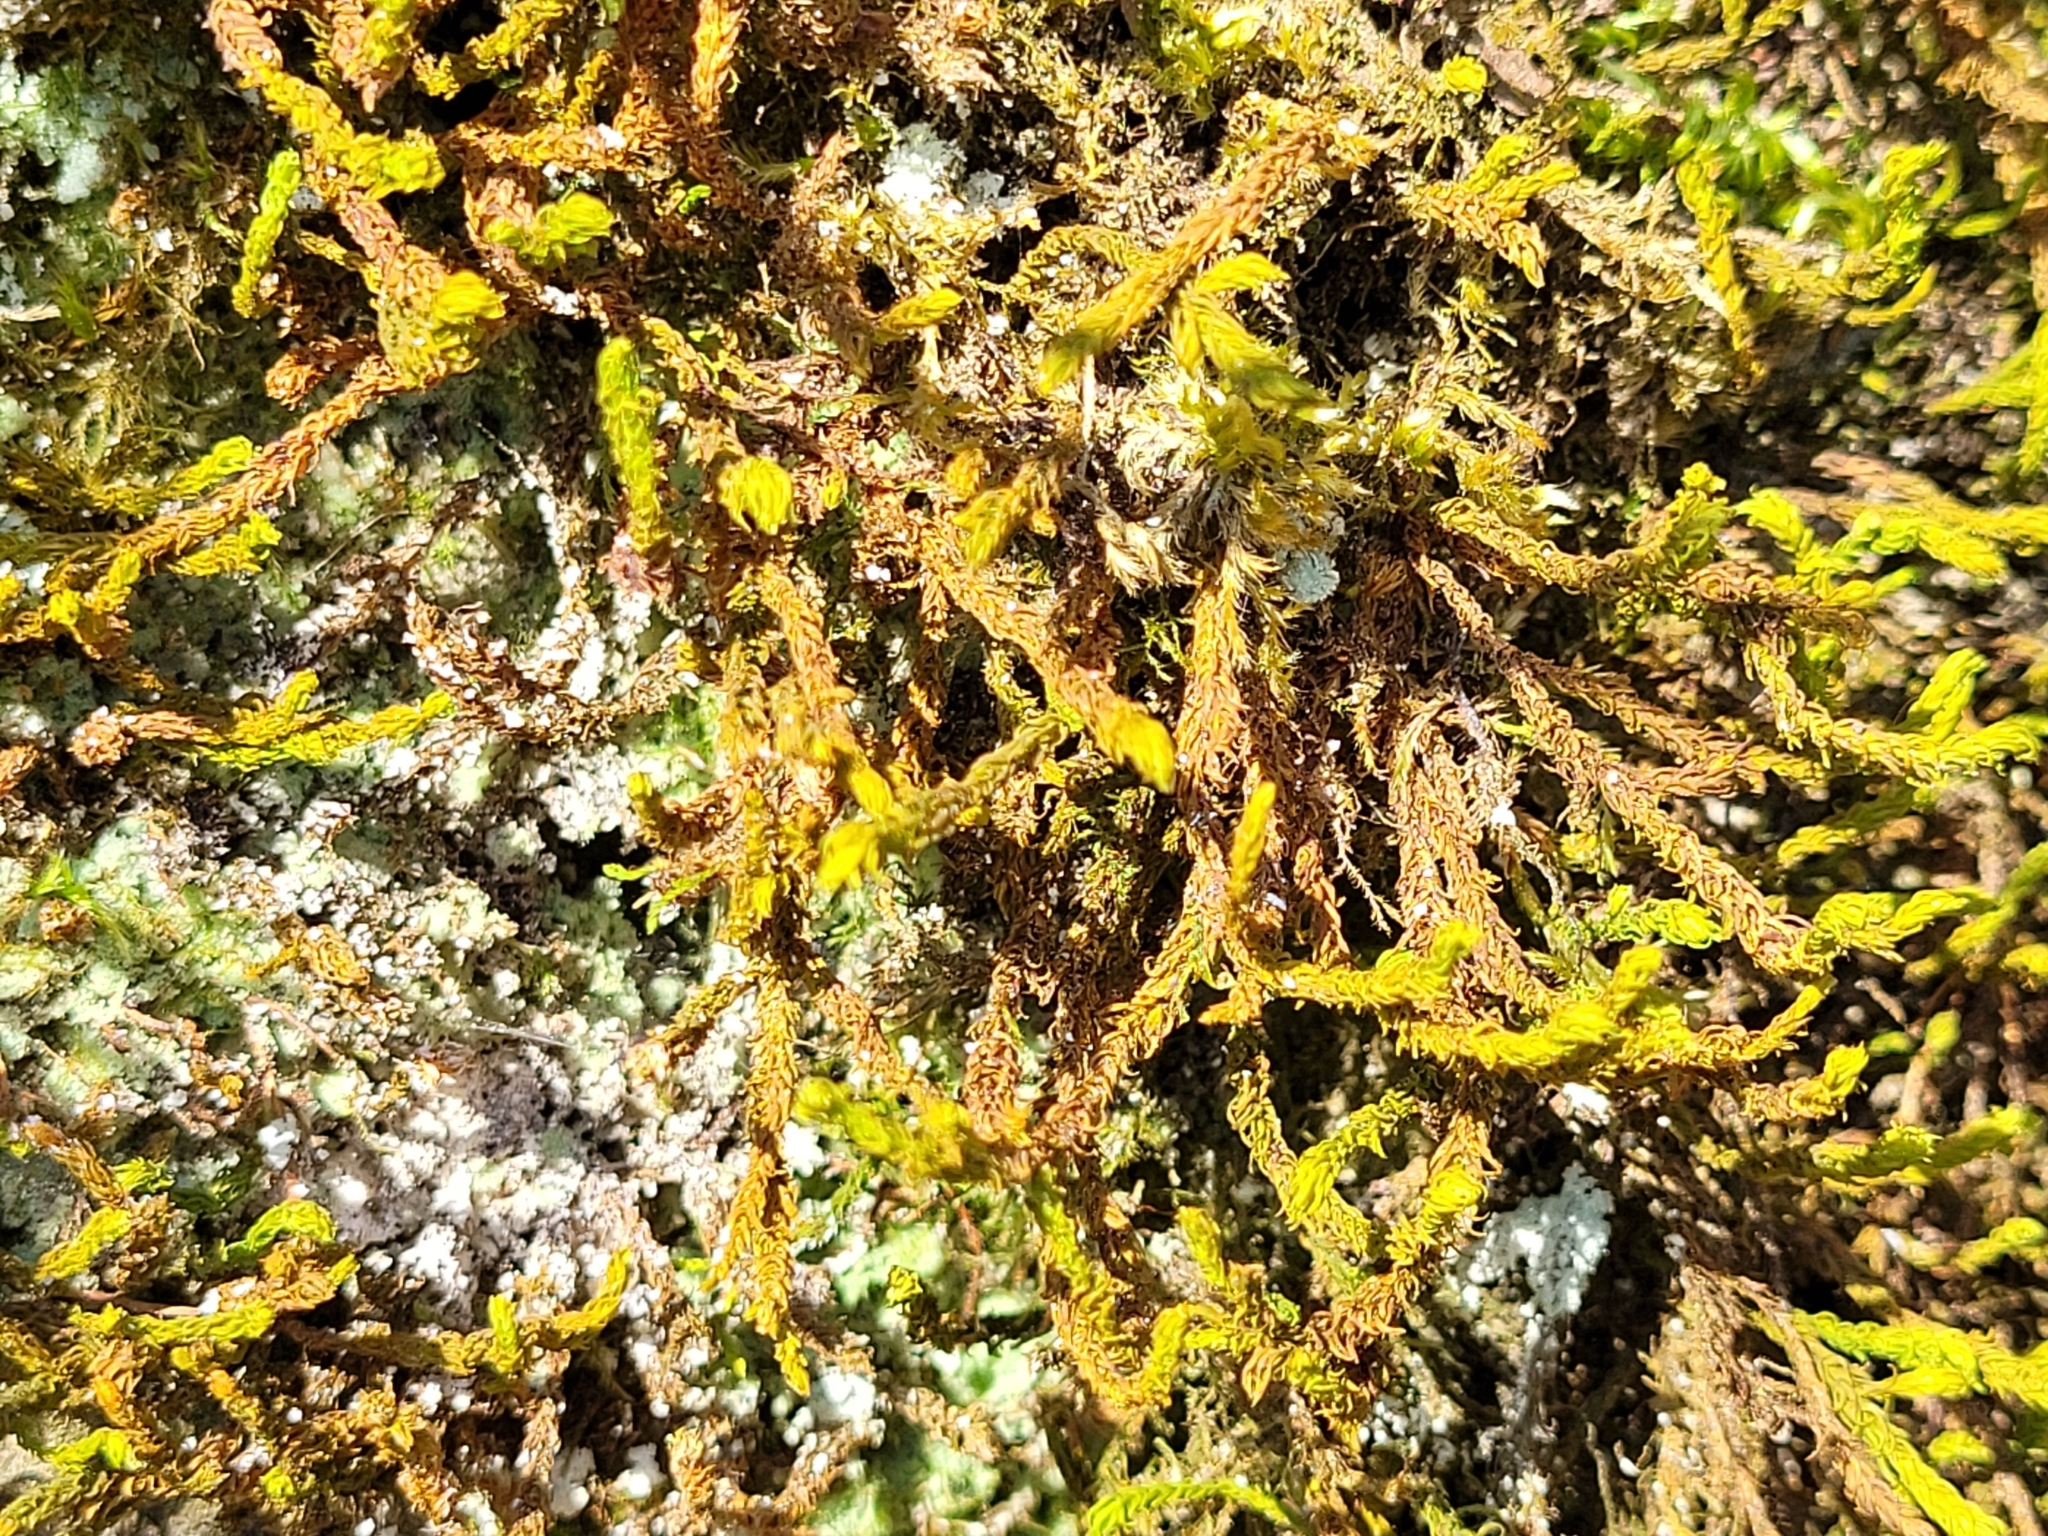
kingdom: Plantae
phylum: Bryophyta
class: Bryopsida
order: Hypnales
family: Anomodontaceae
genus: Anomodon
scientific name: Anomodon viticulosus
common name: Tall anomodon
